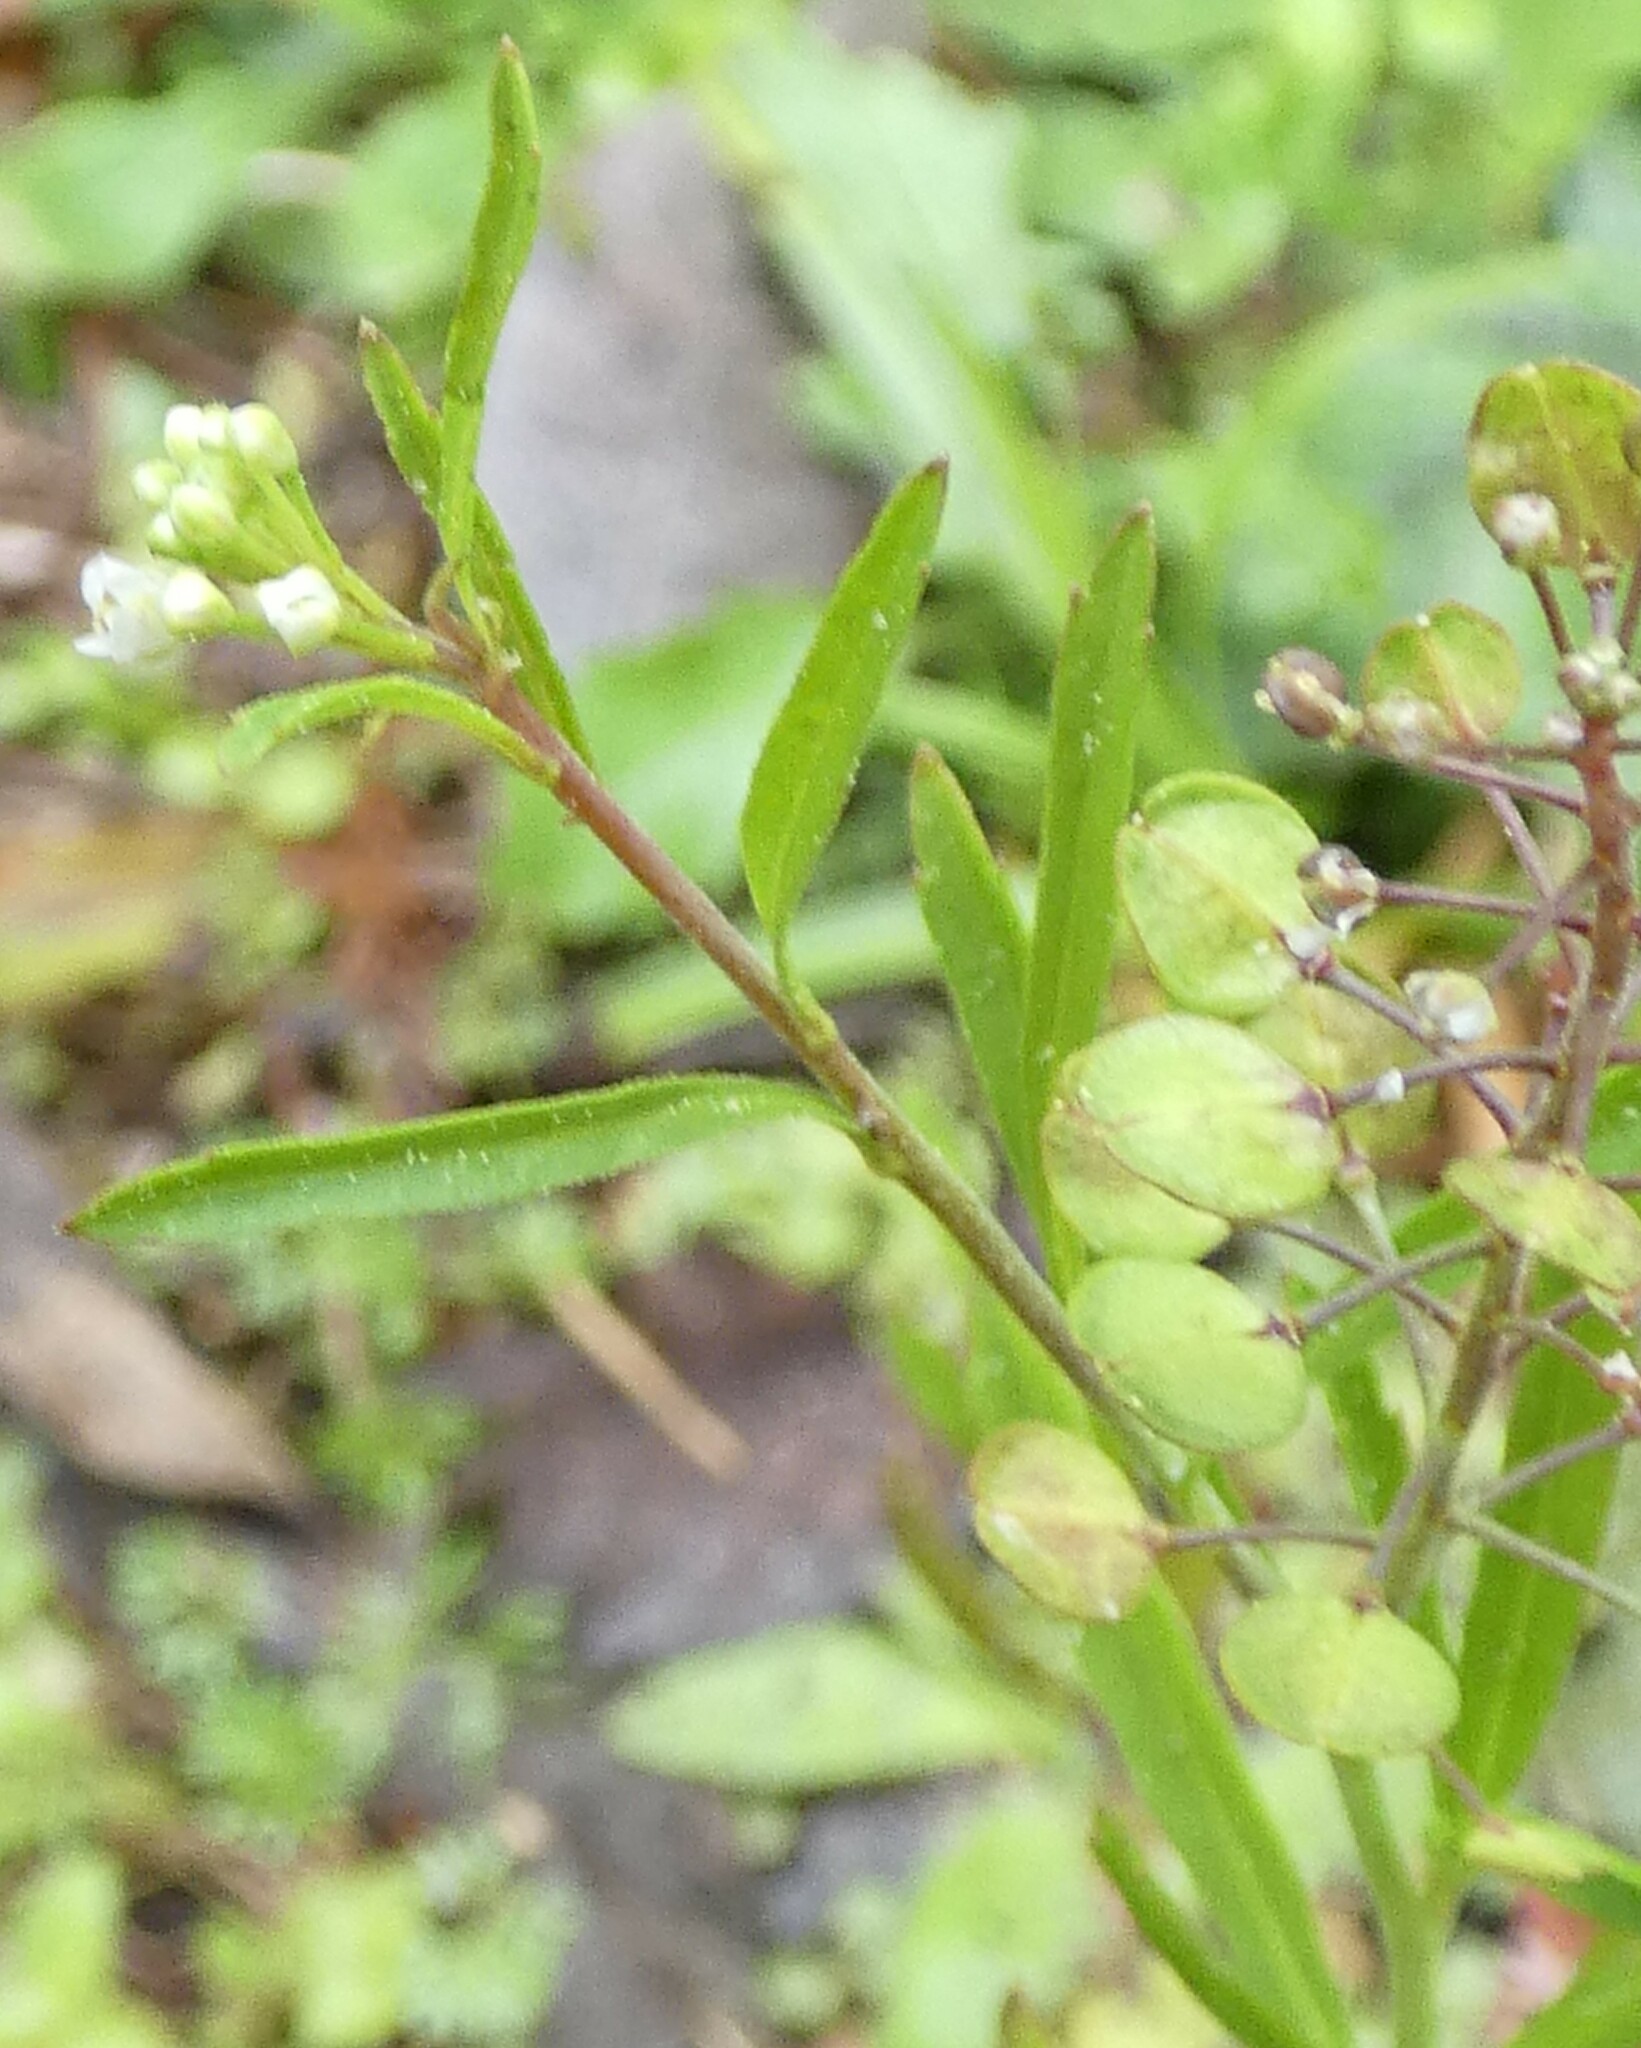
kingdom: Plantae
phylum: Tracheophyta
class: Magnoliopsida
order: Brassicales
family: Brassicaceae
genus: Lepidium
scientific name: Lepidium virginicum
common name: Least pepperwort
